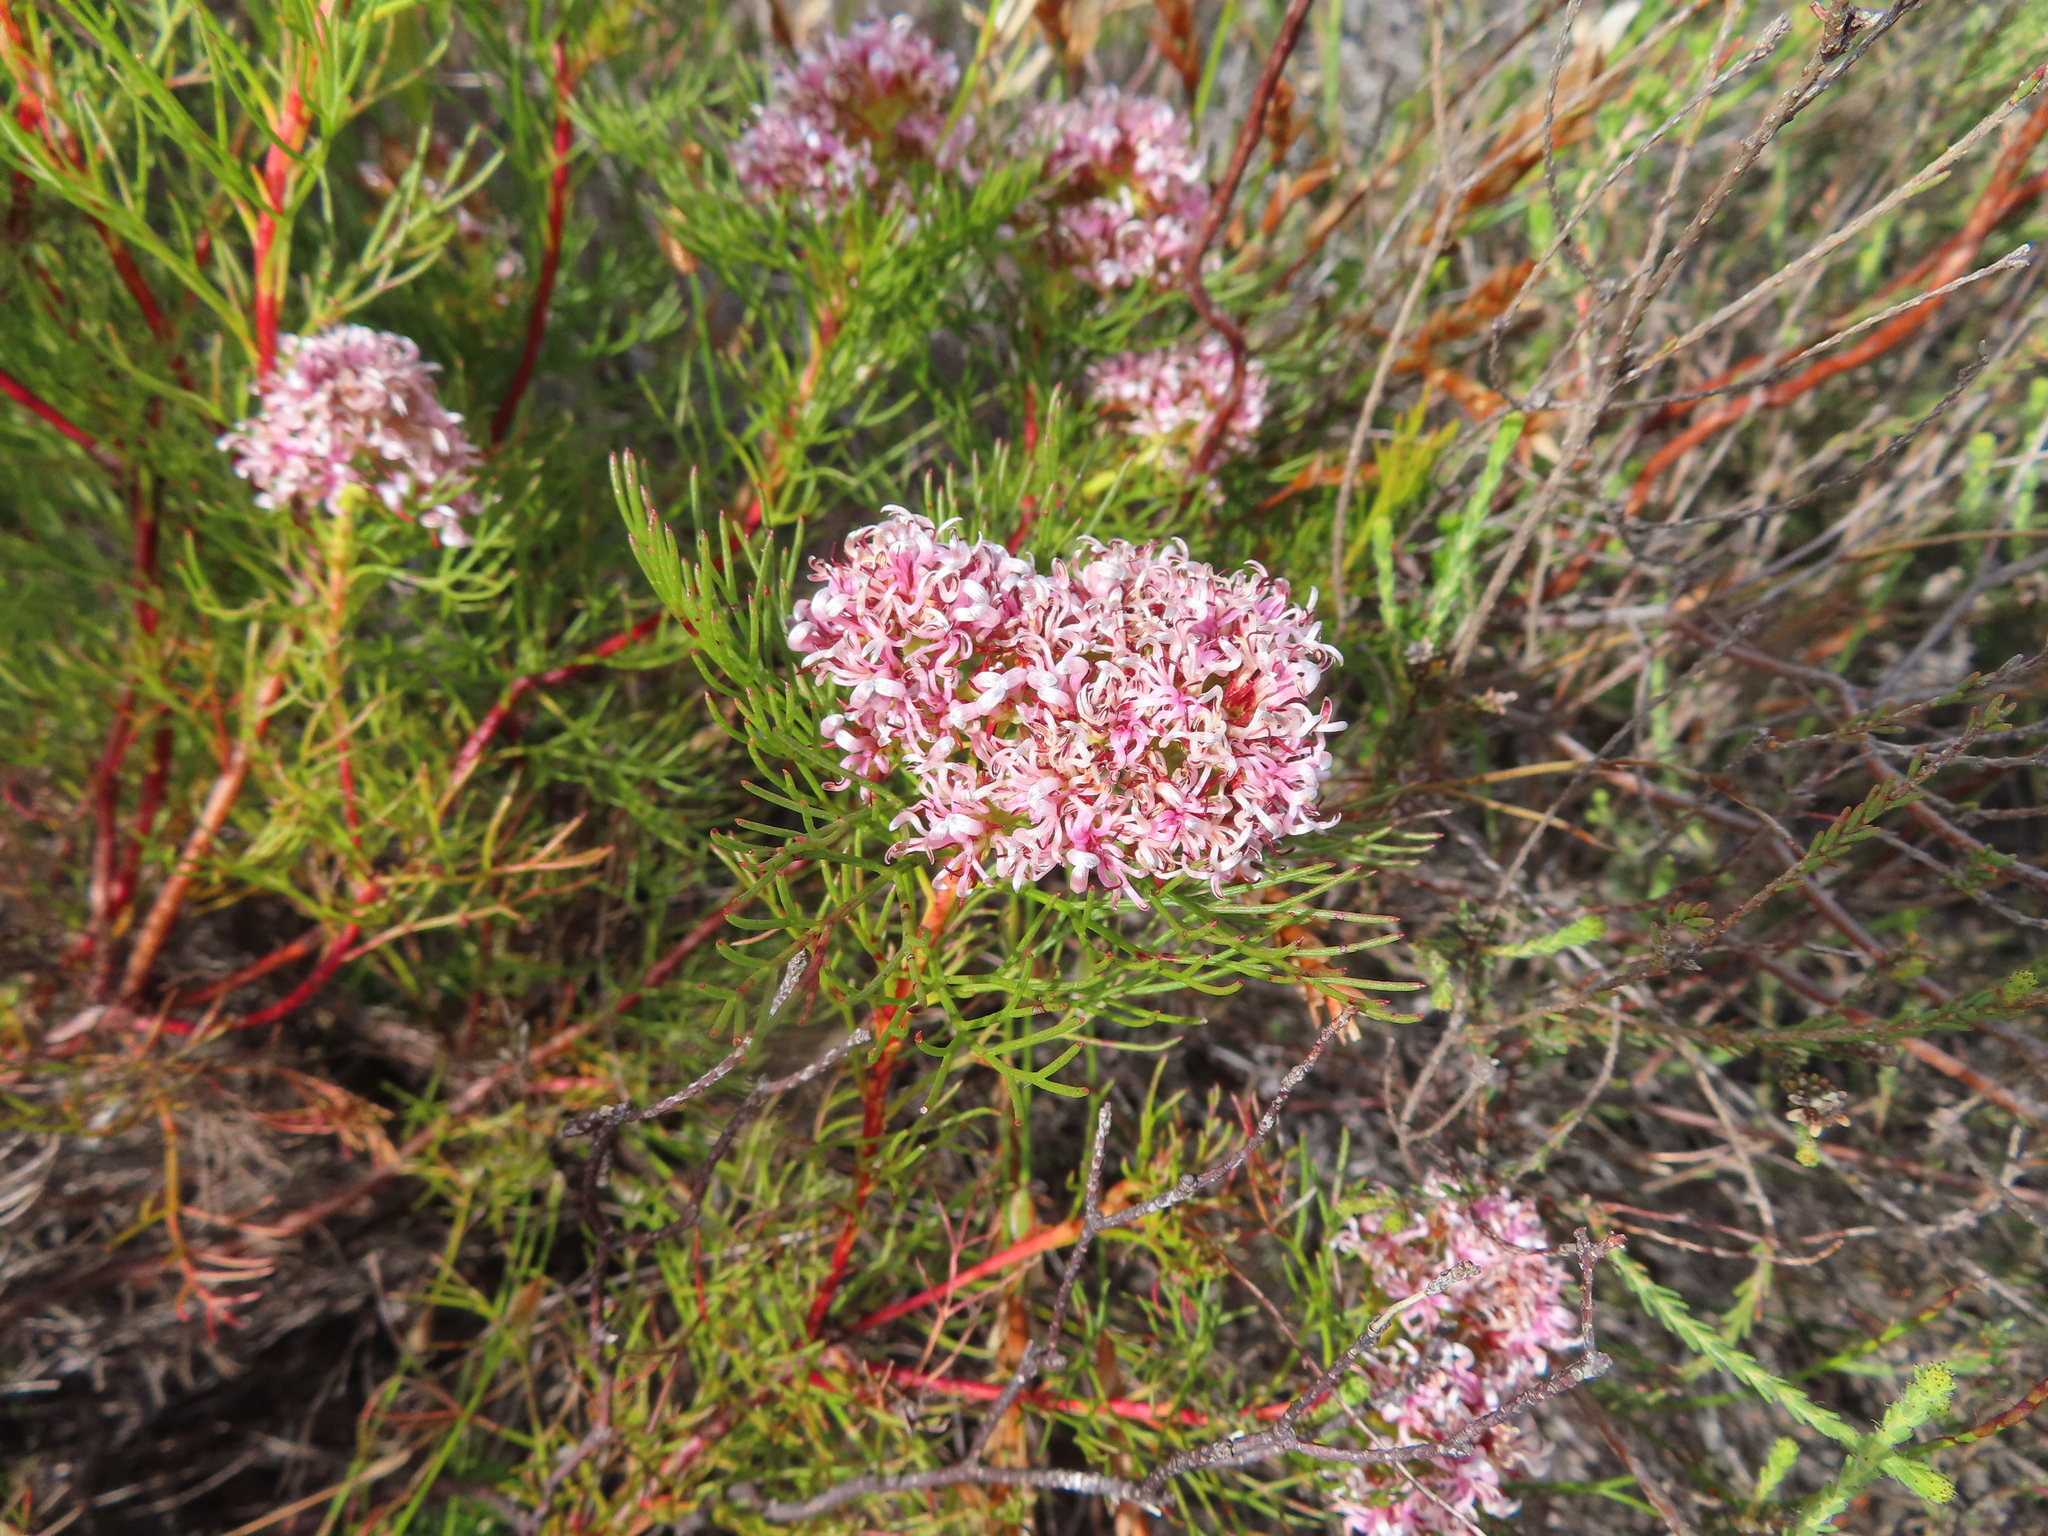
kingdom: Plantae
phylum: Tracheophyta
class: Magnoliopsida
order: Proteales
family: Proteaceae
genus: Serruria
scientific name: Serruria ascendens
